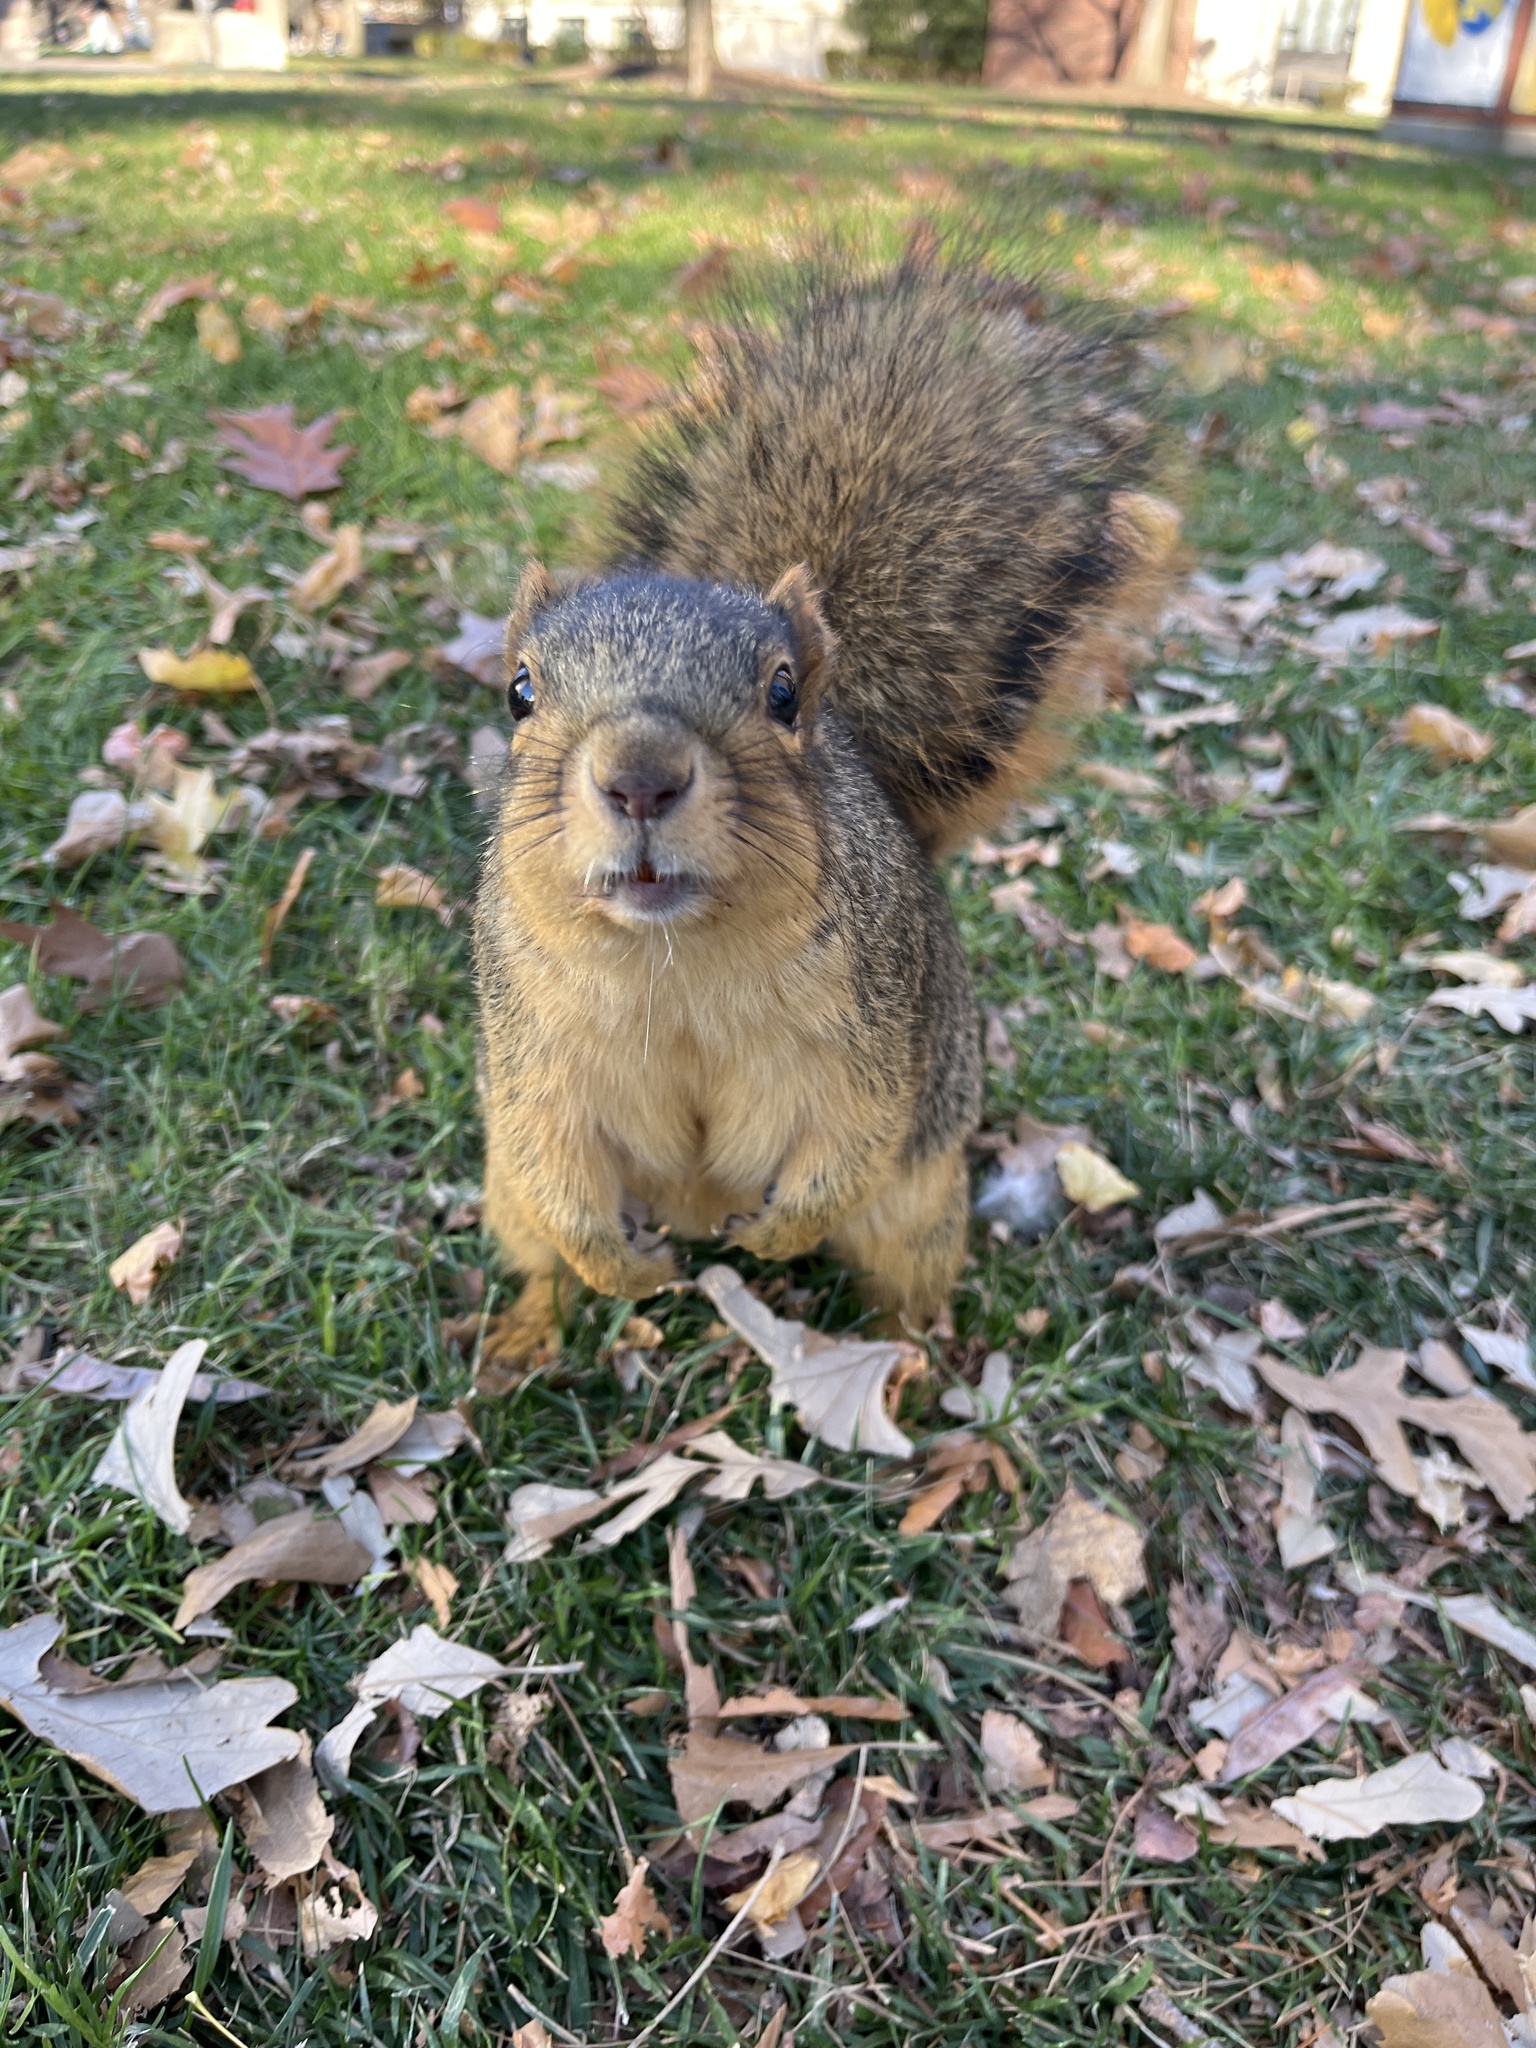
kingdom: Animalia
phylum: Chordata
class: Mammalia
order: Rodentia
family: Sciuridae
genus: Sciurus
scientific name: Sciurus niger
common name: Fox squirrel
